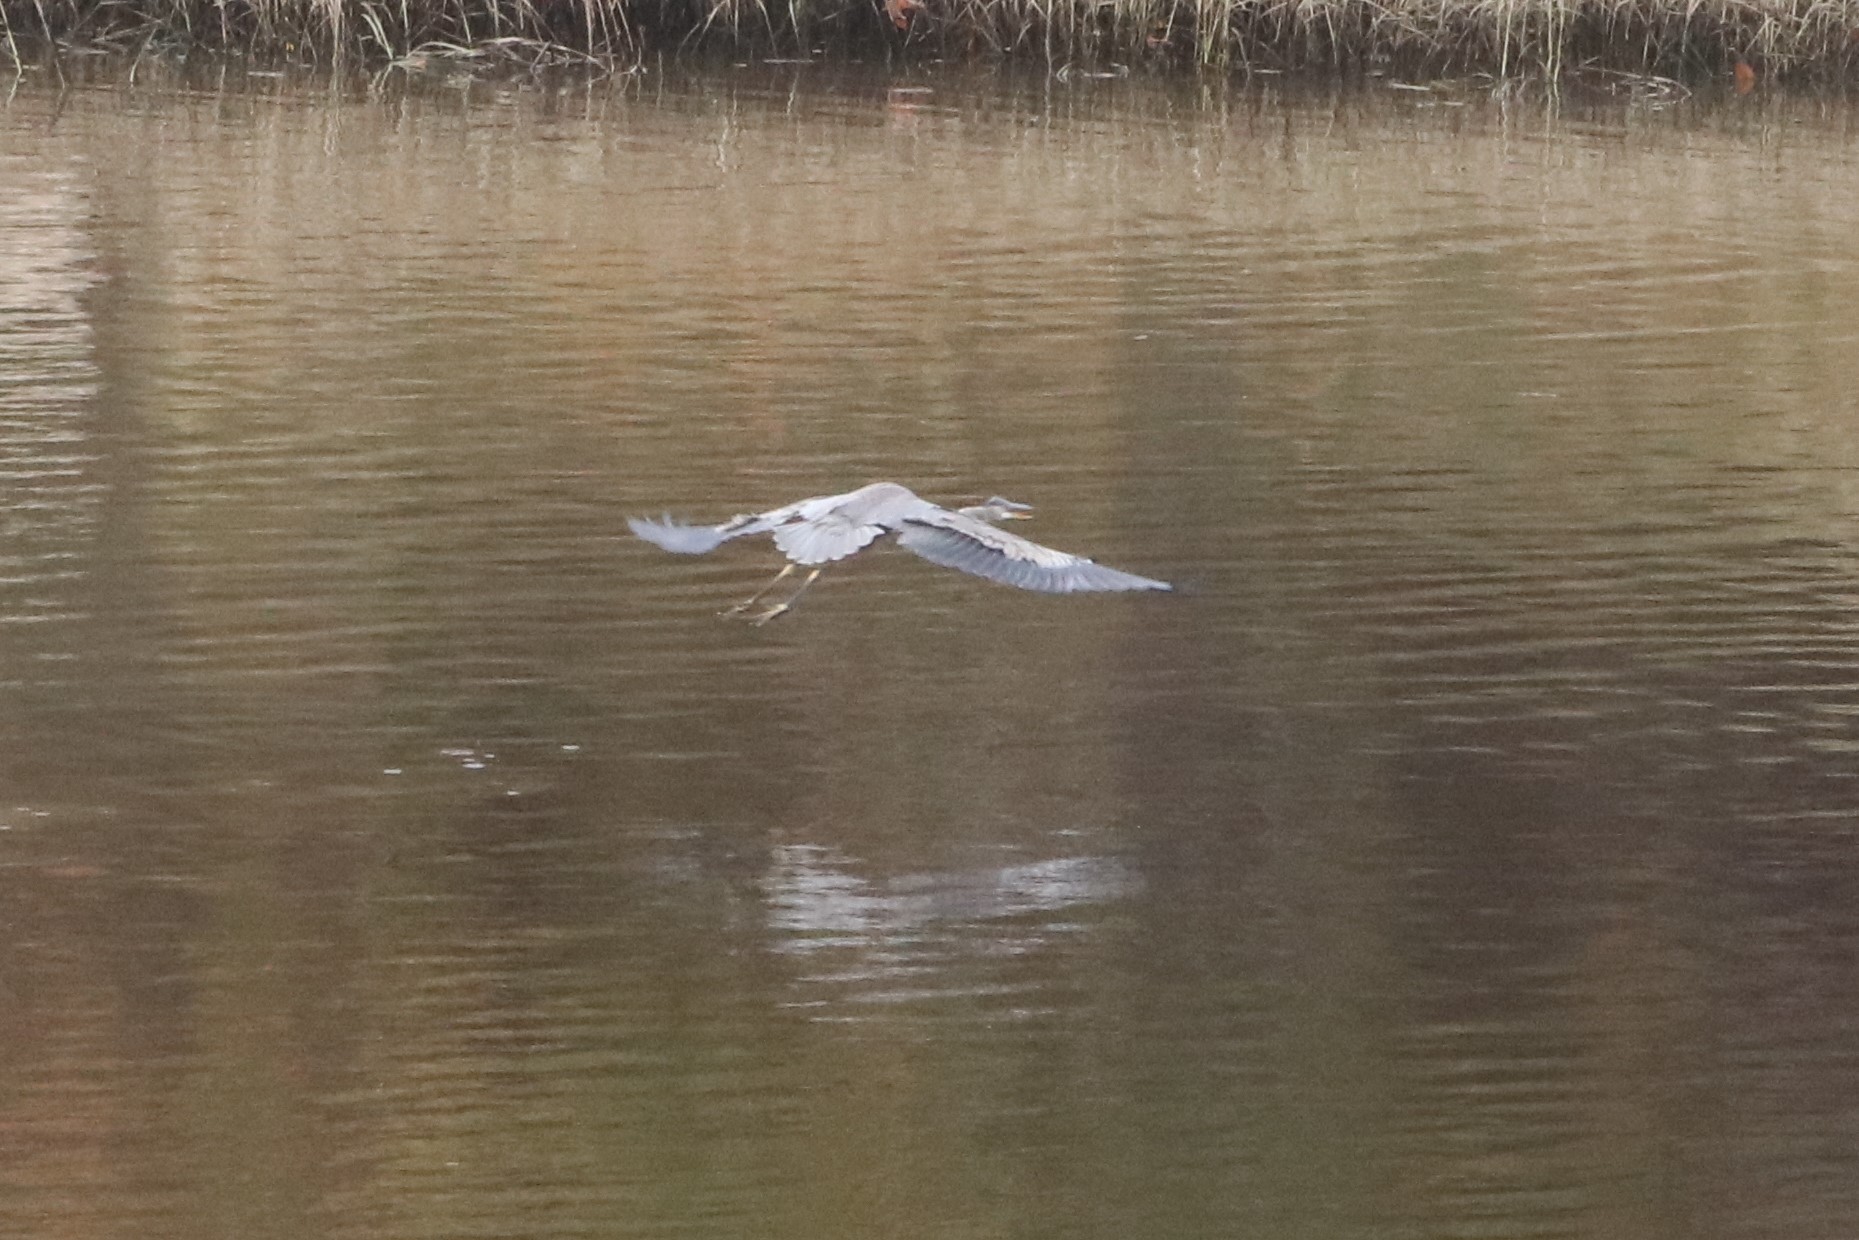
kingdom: Animalia
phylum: Chordata
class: Aves
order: Pelecaniformes
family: Ardeidae
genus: Ardea
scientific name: Ardea herodias
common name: Great blue heron
